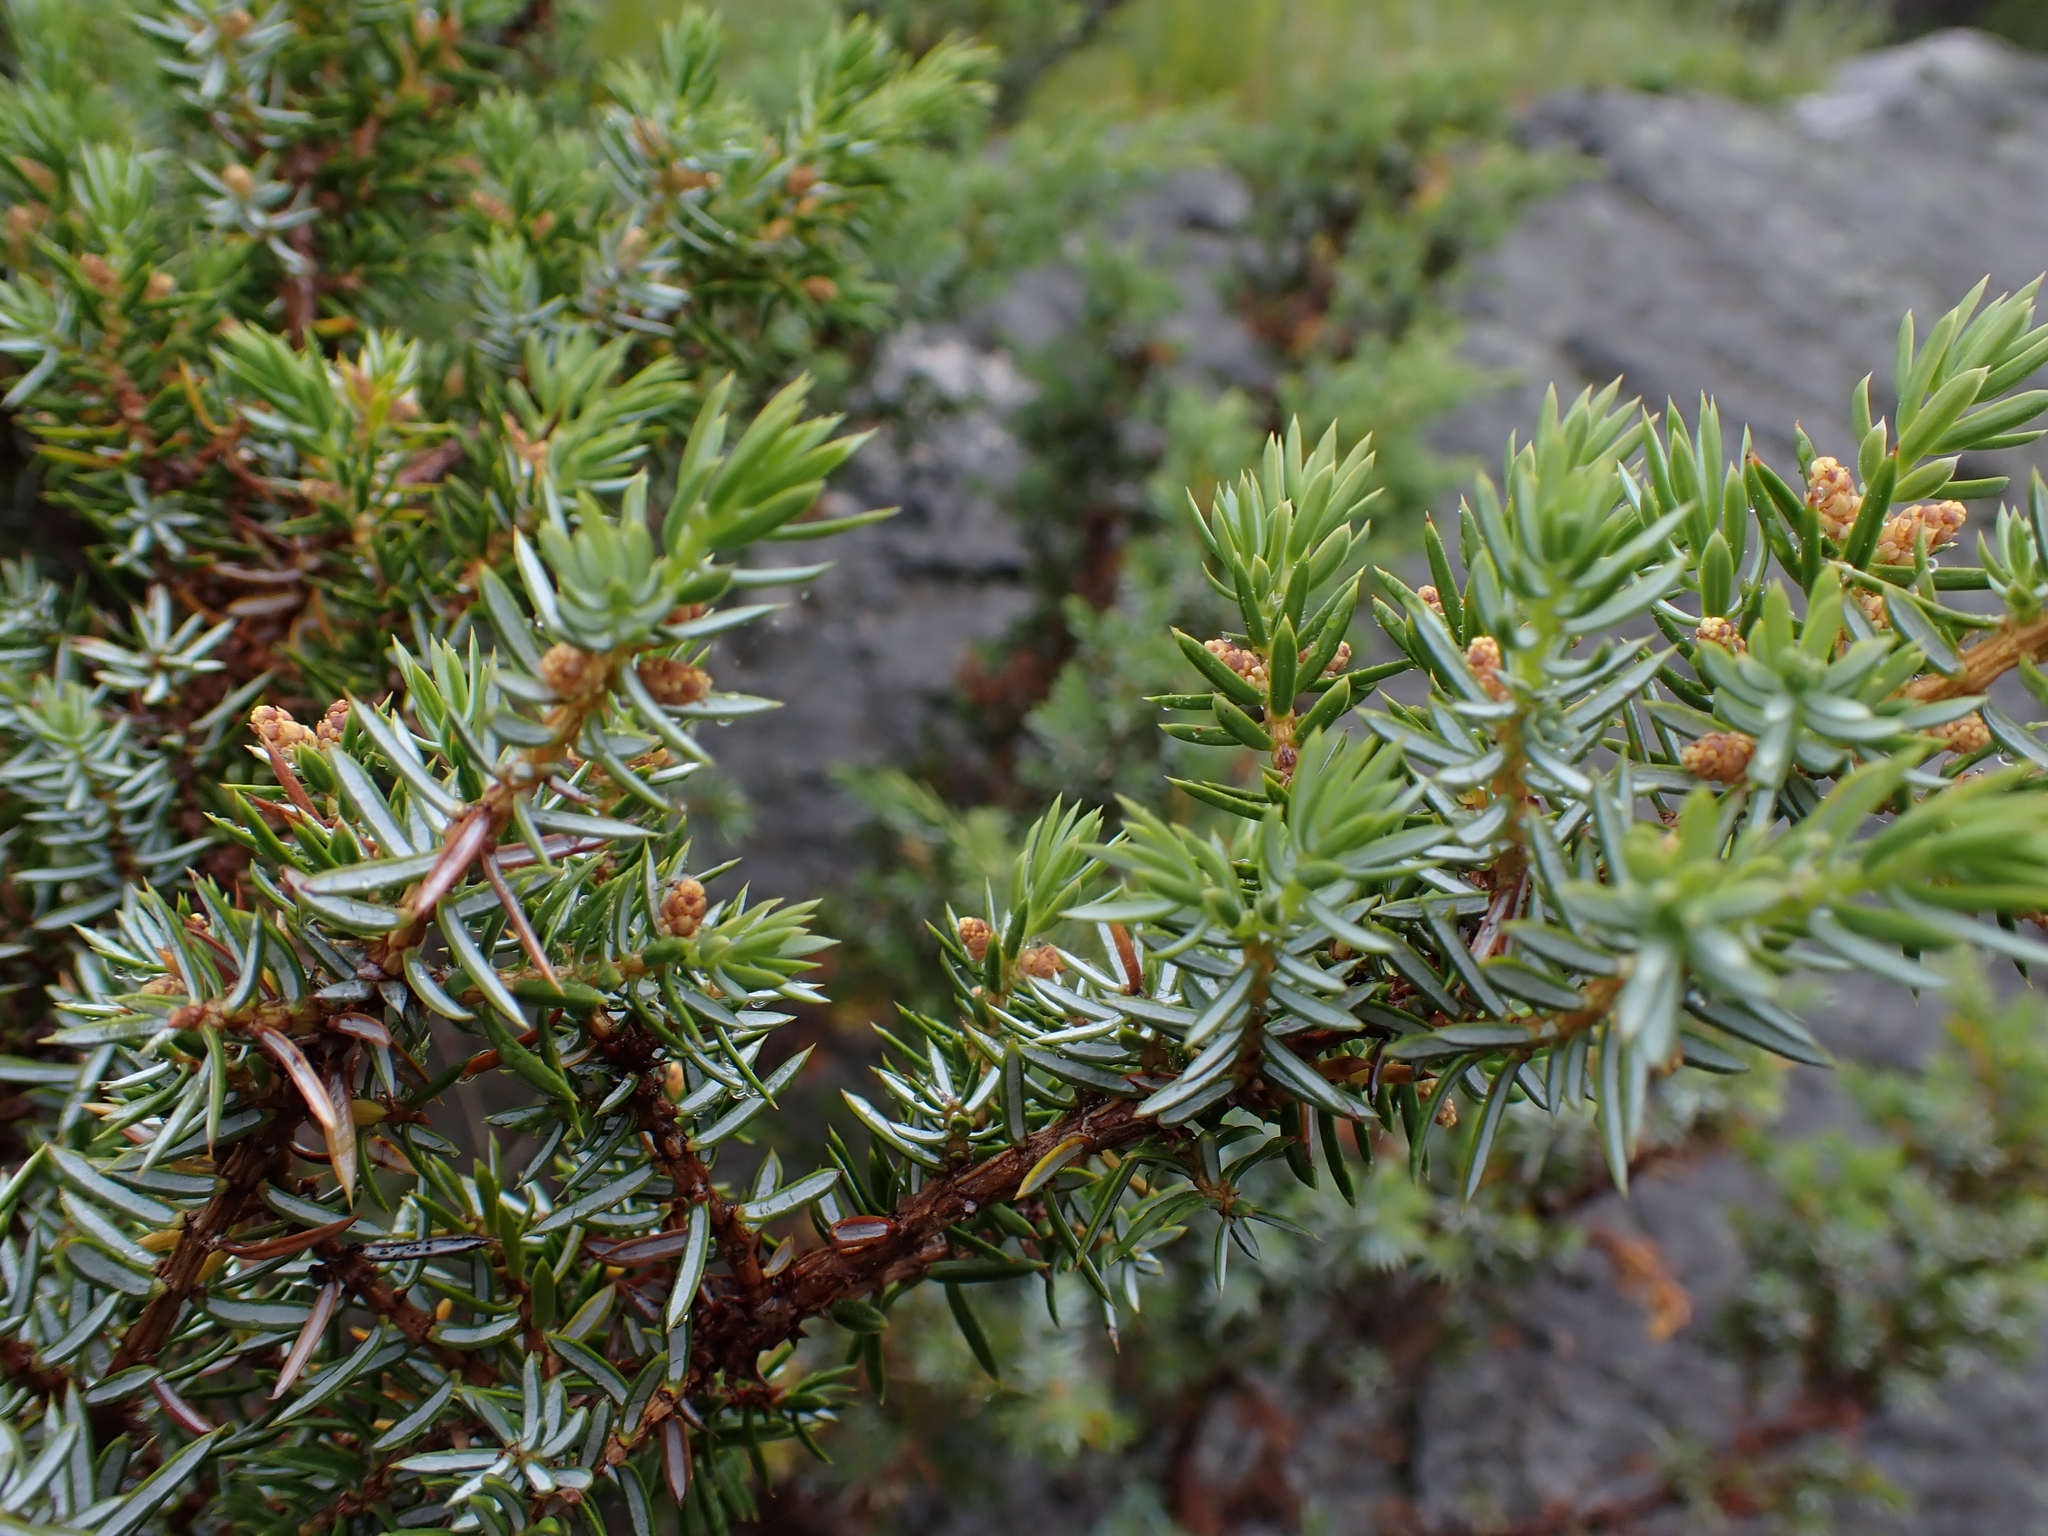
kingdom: Plantae
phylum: Tracheophyta
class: Pinopsida
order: Pinales
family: Cupressaceae
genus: Juniperus
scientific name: Juniperus communis
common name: Common juniper
